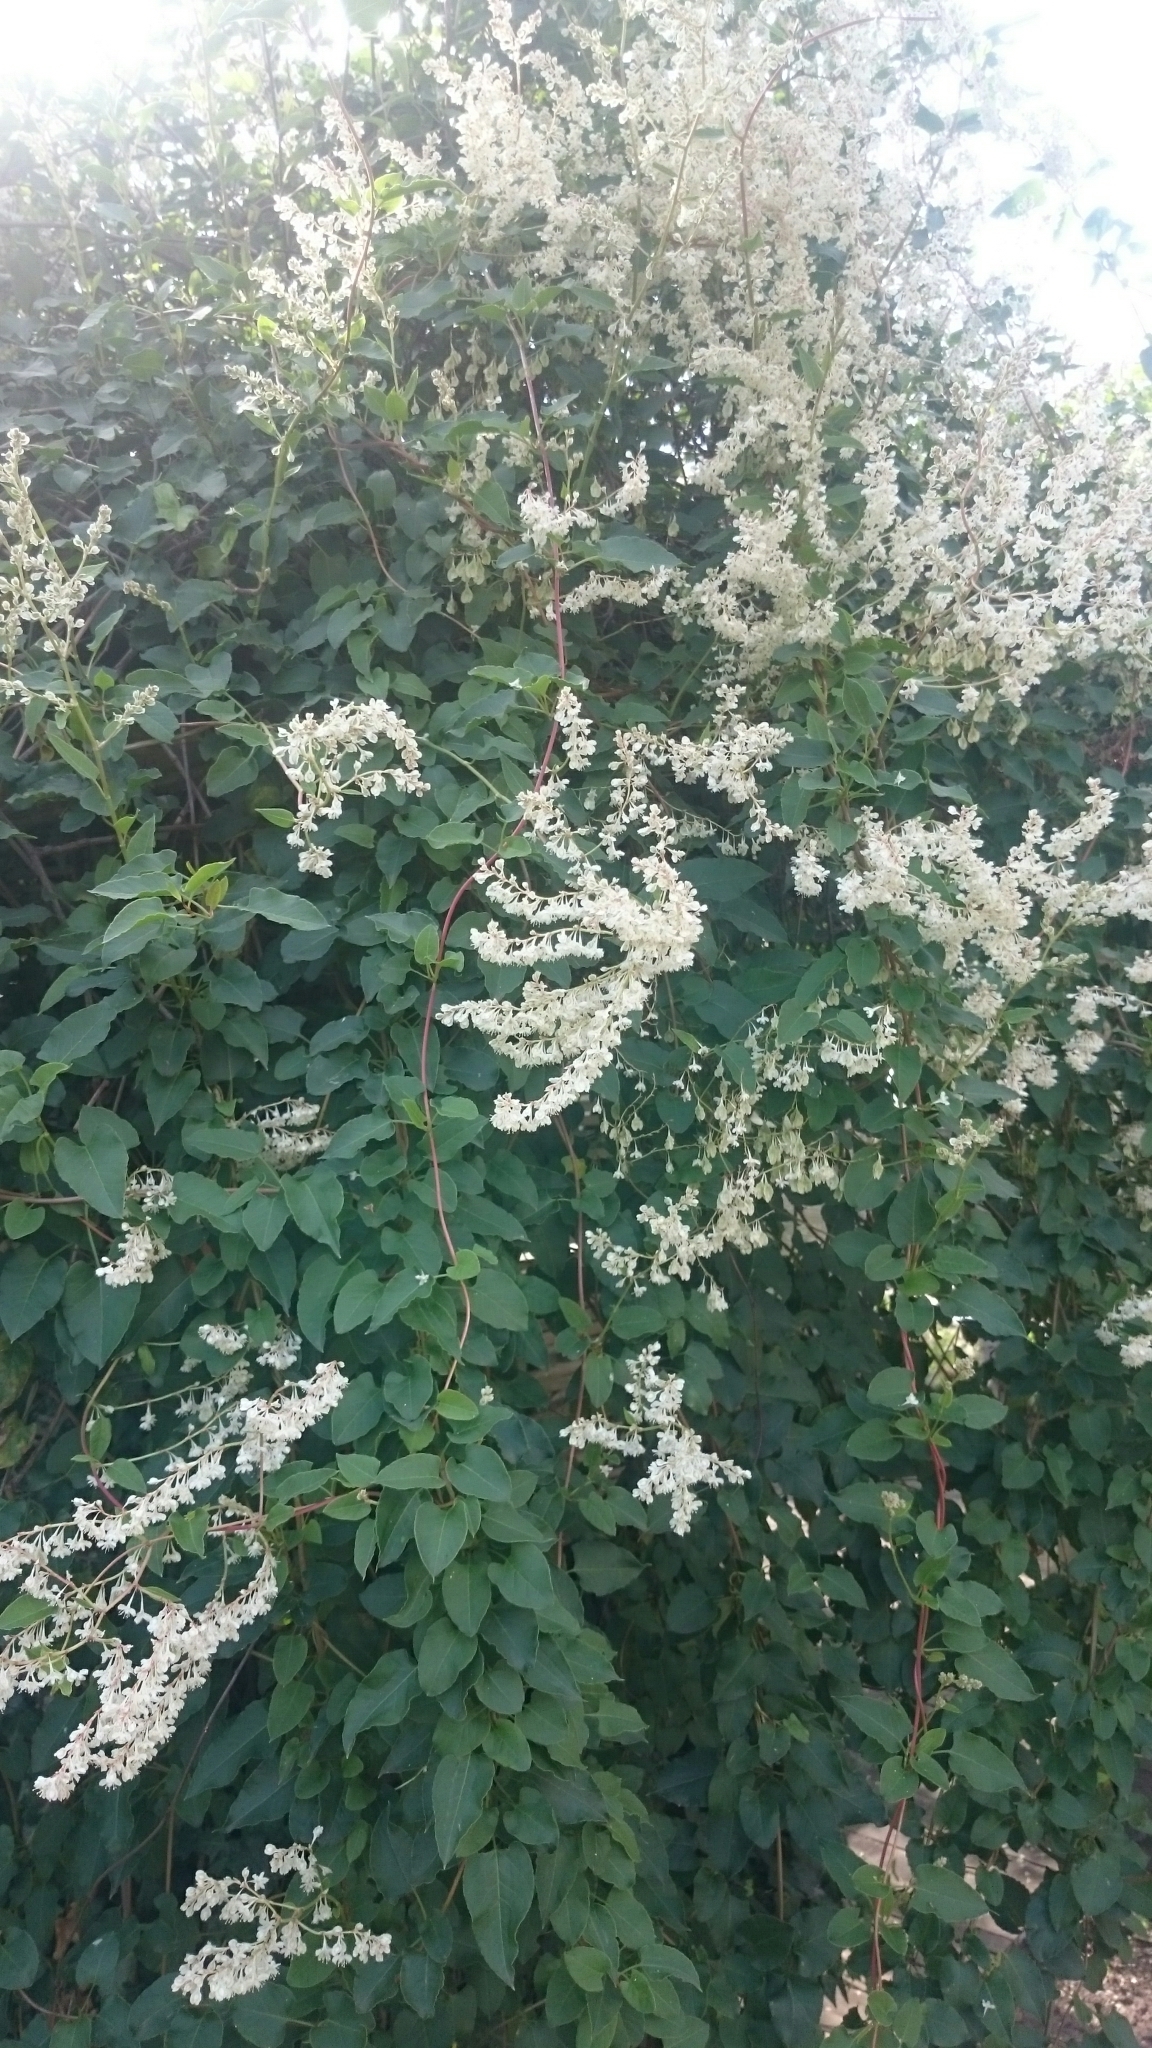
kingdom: Plantae
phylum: Tracheophyta
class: Magnoliopsida
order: Caryophyllales
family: Polygonaceae
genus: Fallopia
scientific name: Fallopia baldschuanica
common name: Russian-vine
